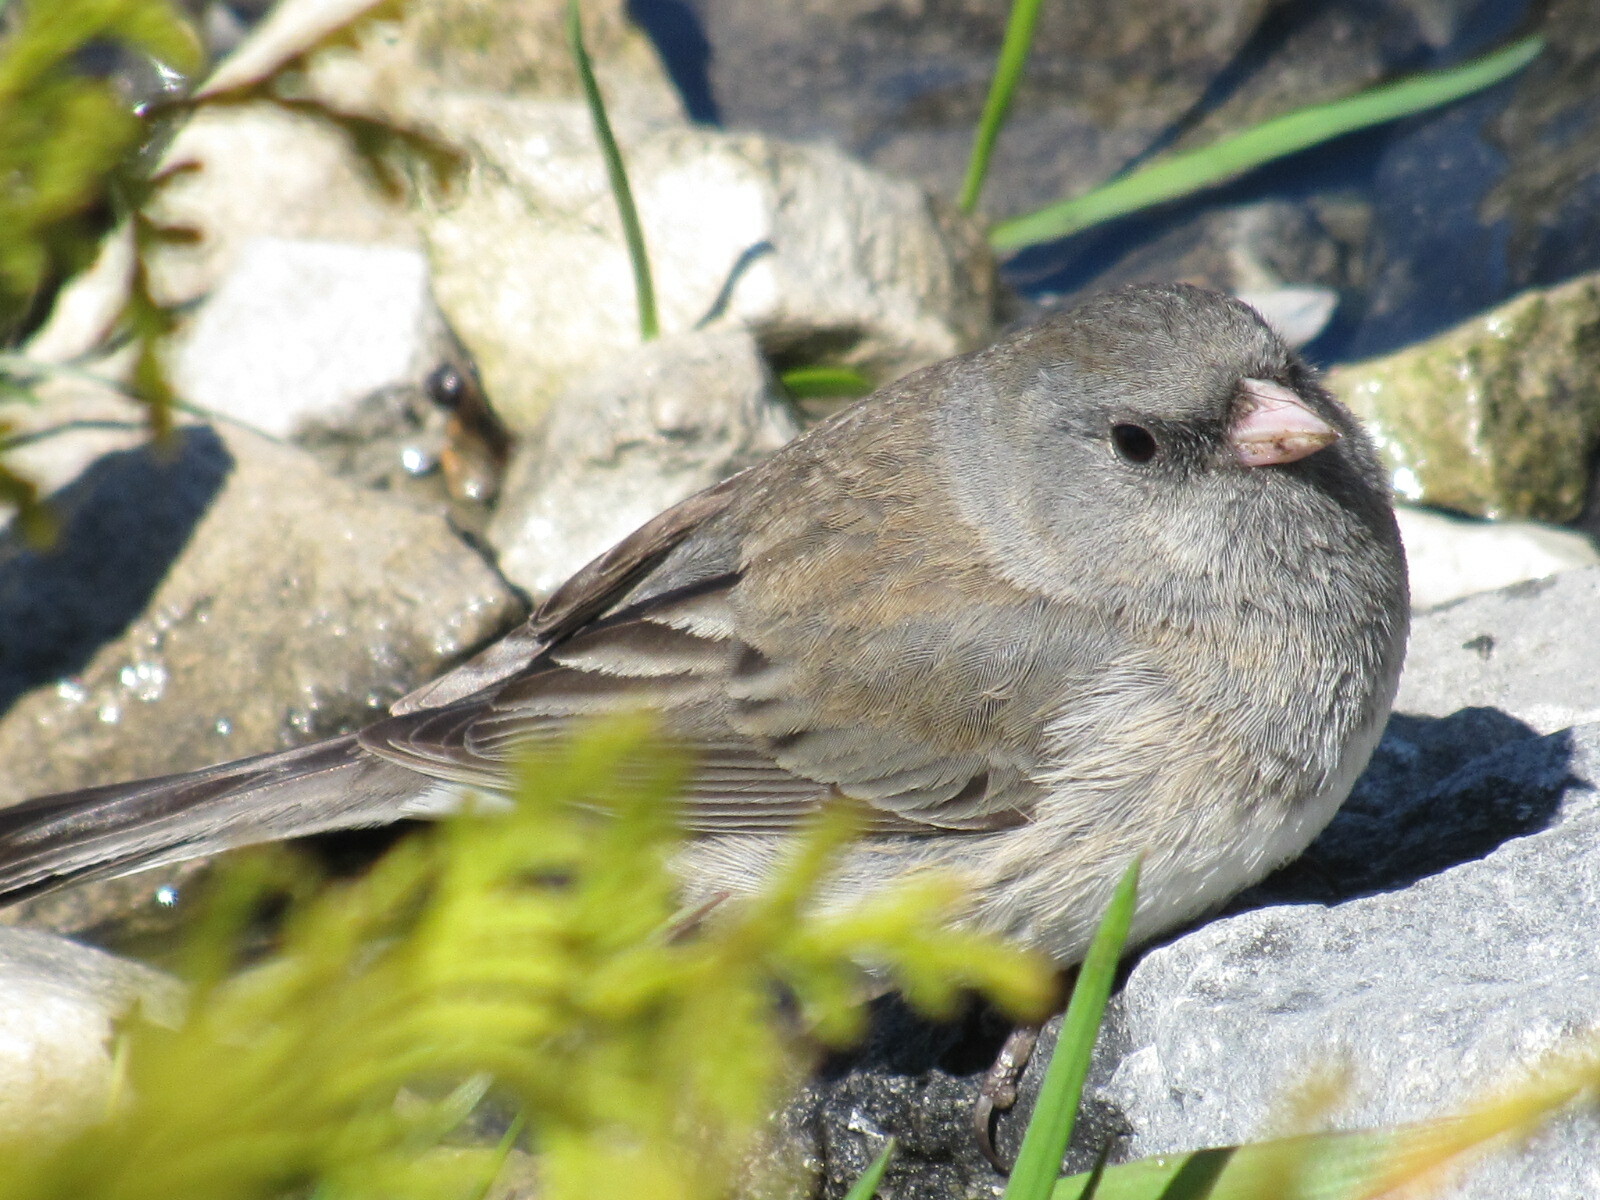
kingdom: Animalia
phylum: Chordata
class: Aves
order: Passeriformes
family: Passerellidae
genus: Junco
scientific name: Junco hyemalis
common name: Dark-eyed junco
